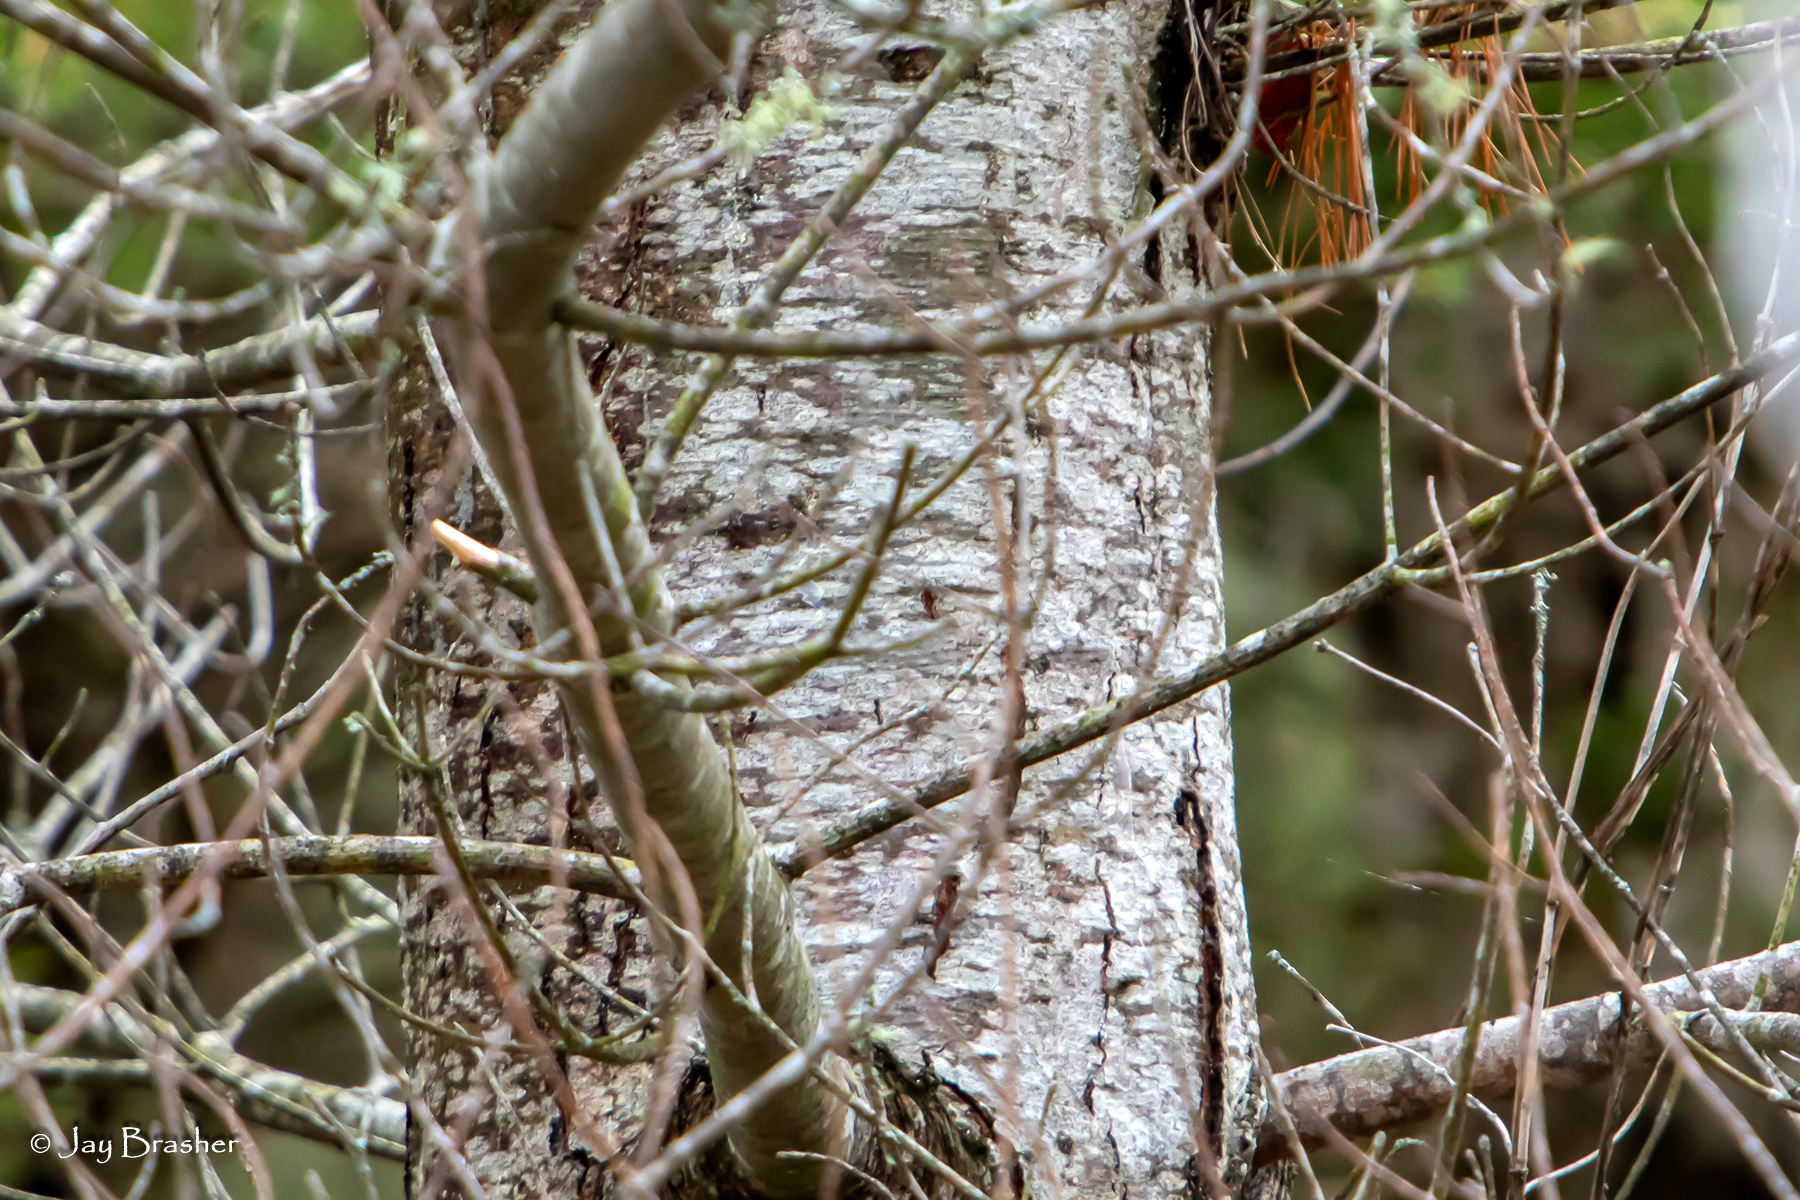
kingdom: Plantae
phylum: Tracheophyta
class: Pinopsida
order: Pinales
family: Pinaceae
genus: Pinus
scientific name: Pinus strobus
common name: Weymouth pine
